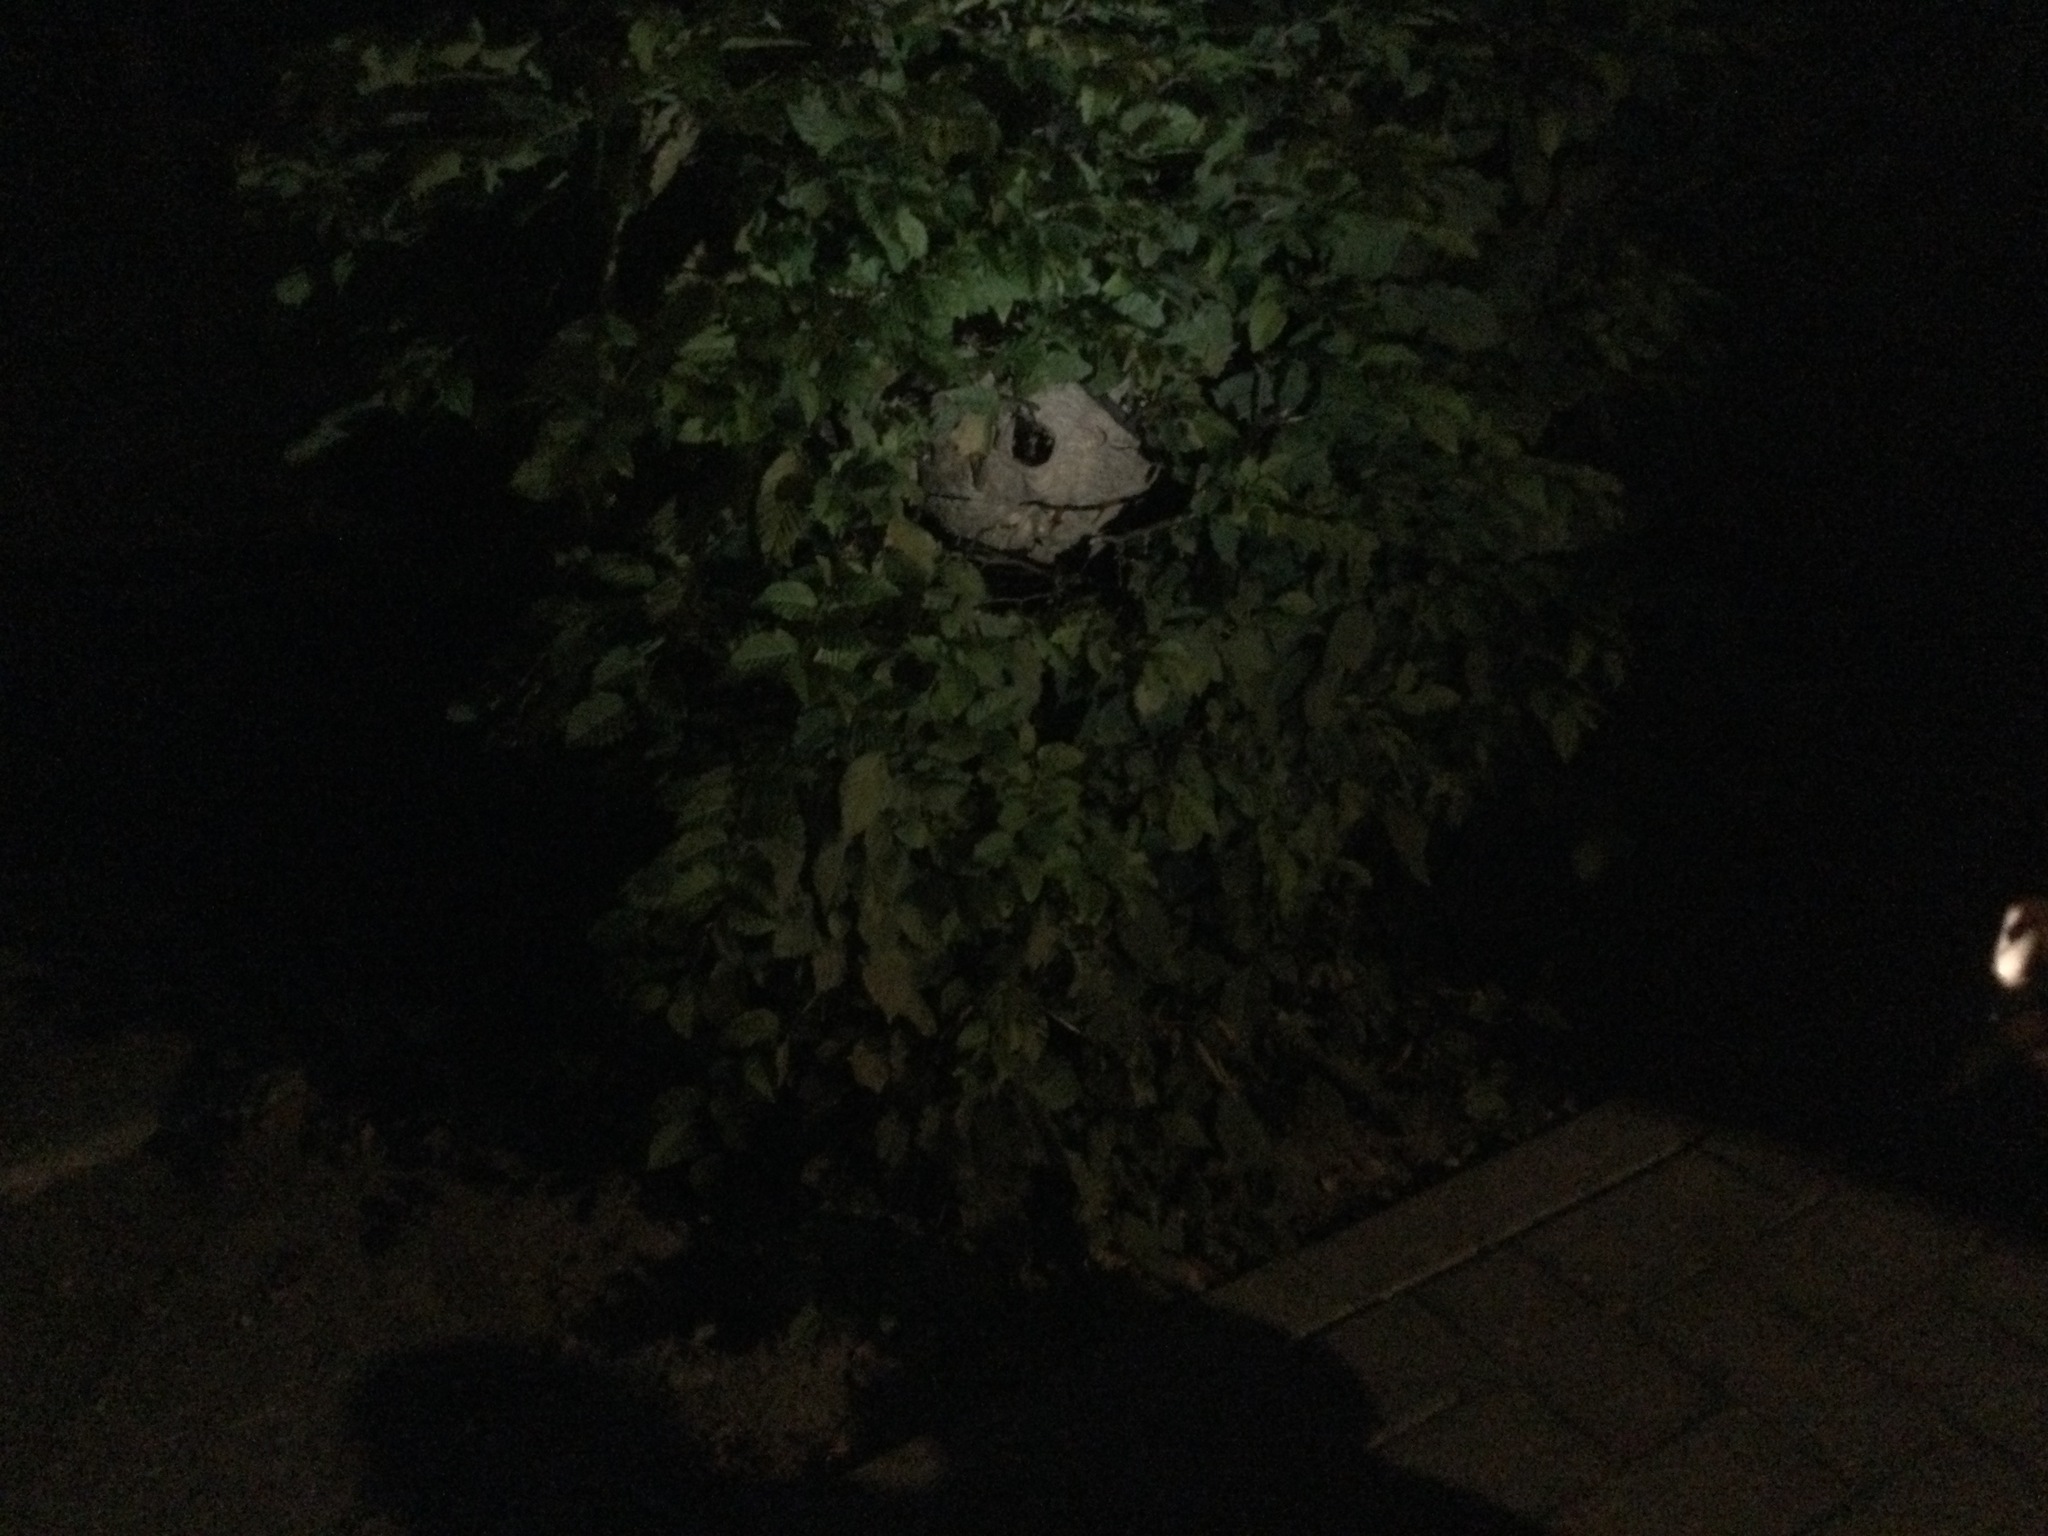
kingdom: Animalia
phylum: Arthropoda
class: Insecta
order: Hymenoptera
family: Vespidae
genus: Vespa
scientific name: Vespa velutina
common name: Asian hornet
